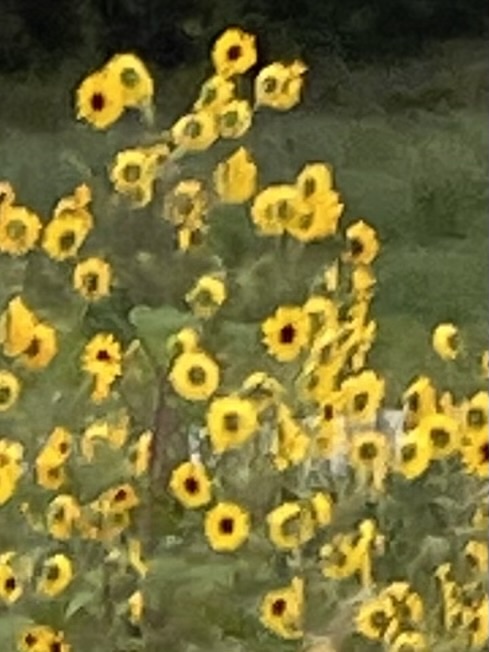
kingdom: Plantae
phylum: Tracheophyta
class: Magnoliopsida
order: Asterales
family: Asteraceae
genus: Helianthus
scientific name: Helianthus annuus
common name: Sunflower
